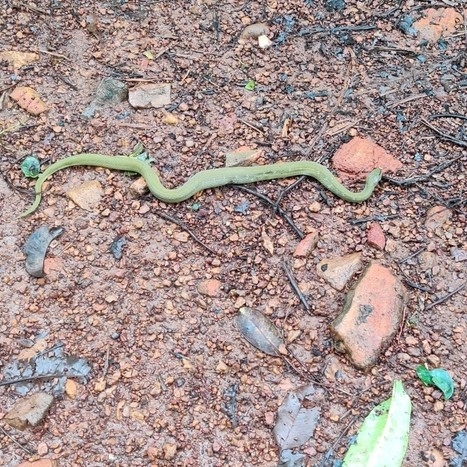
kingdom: Animalia
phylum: Chordata
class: Squamata
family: Colubridae
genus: Rhabdophis
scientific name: Rhabdophis plumbicolor
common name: Green keelback
